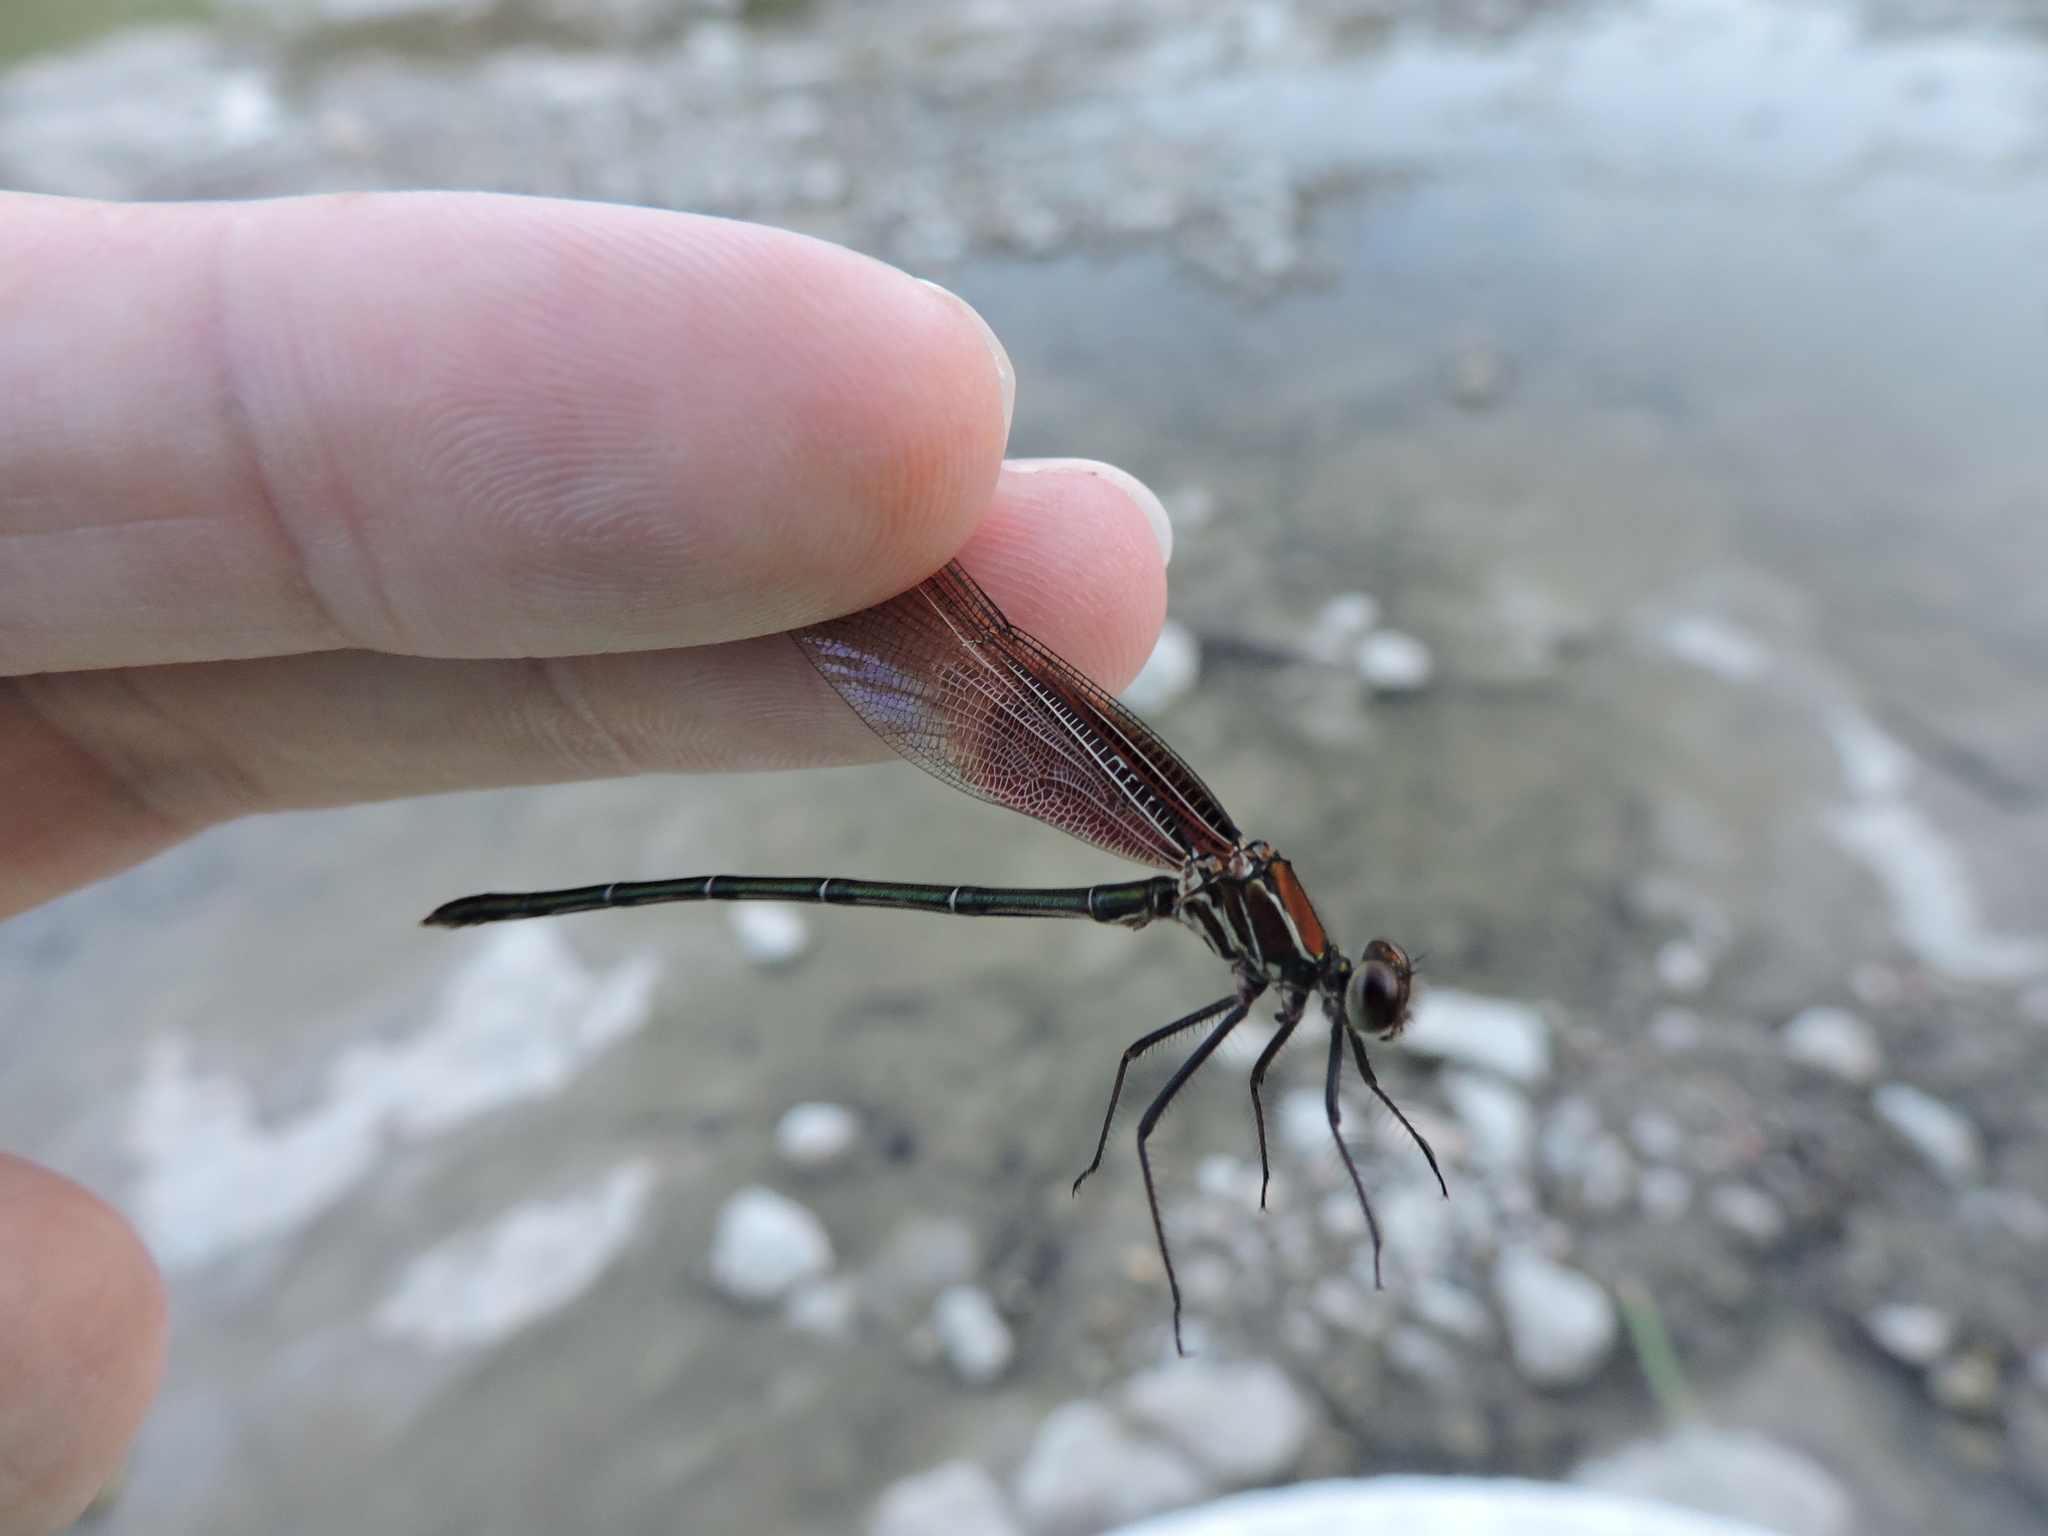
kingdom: Animalia
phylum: Arthropoda
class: Insecta
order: Odonata
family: Calopterygidae
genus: Hetaerina
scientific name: Hetaerina americana
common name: American rubyspot
